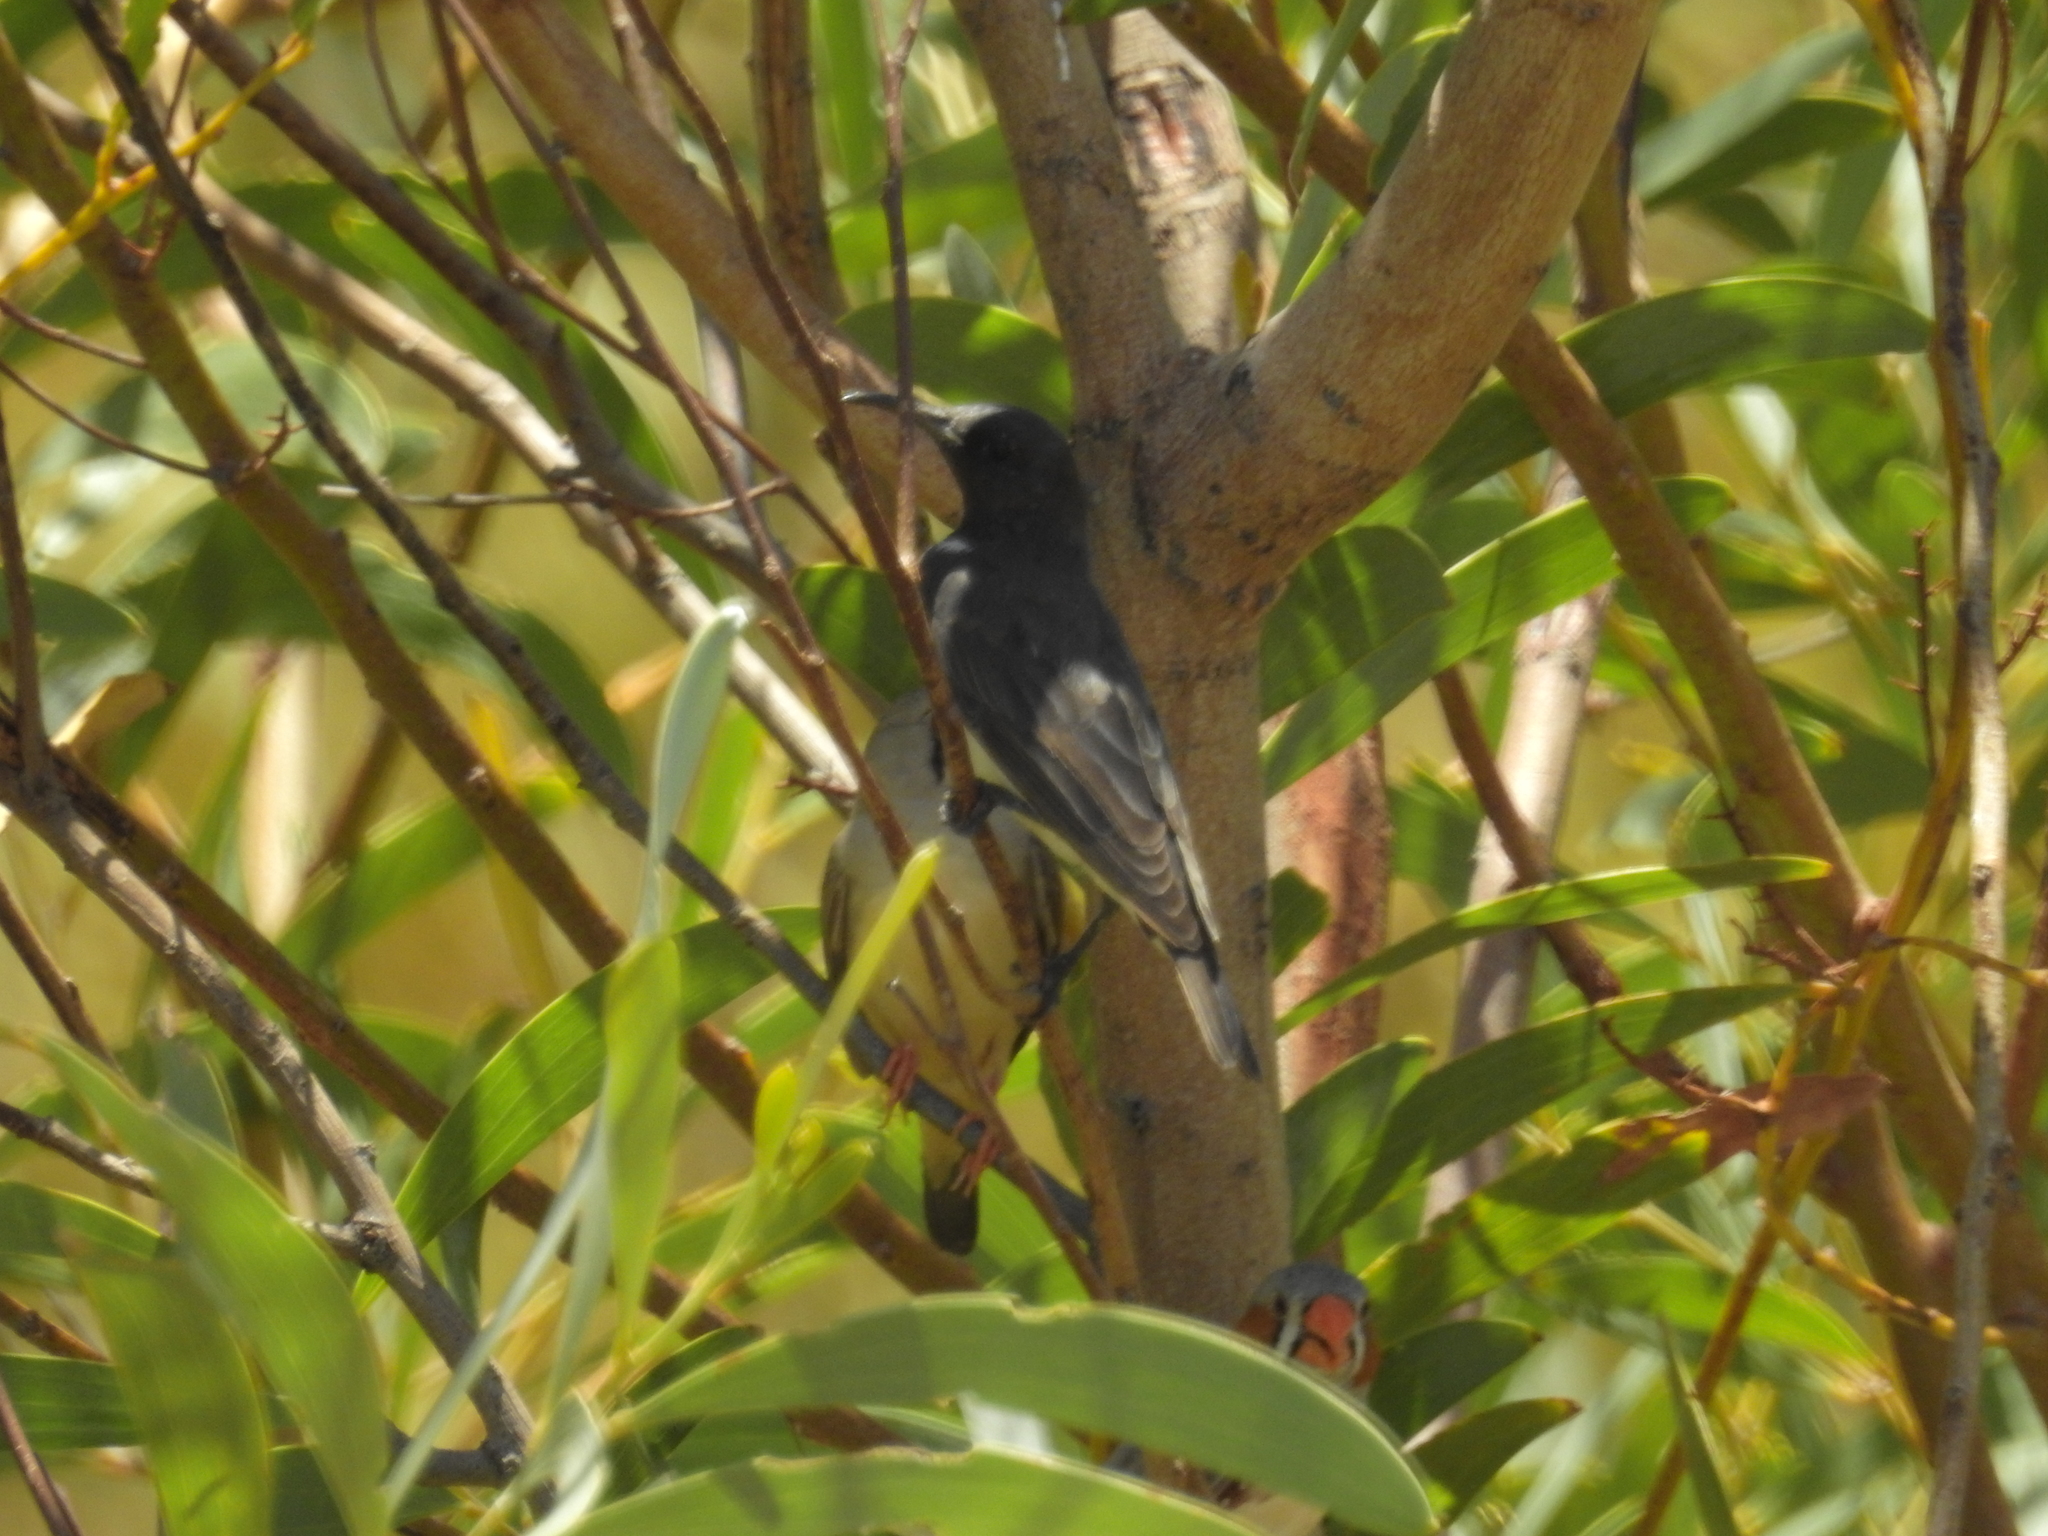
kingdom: Animalia
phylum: Chordata
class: Aves
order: Passeriformes
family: Meliphagidae
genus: Sugomel
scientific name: Sugomel niger
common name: Black honeyeater
